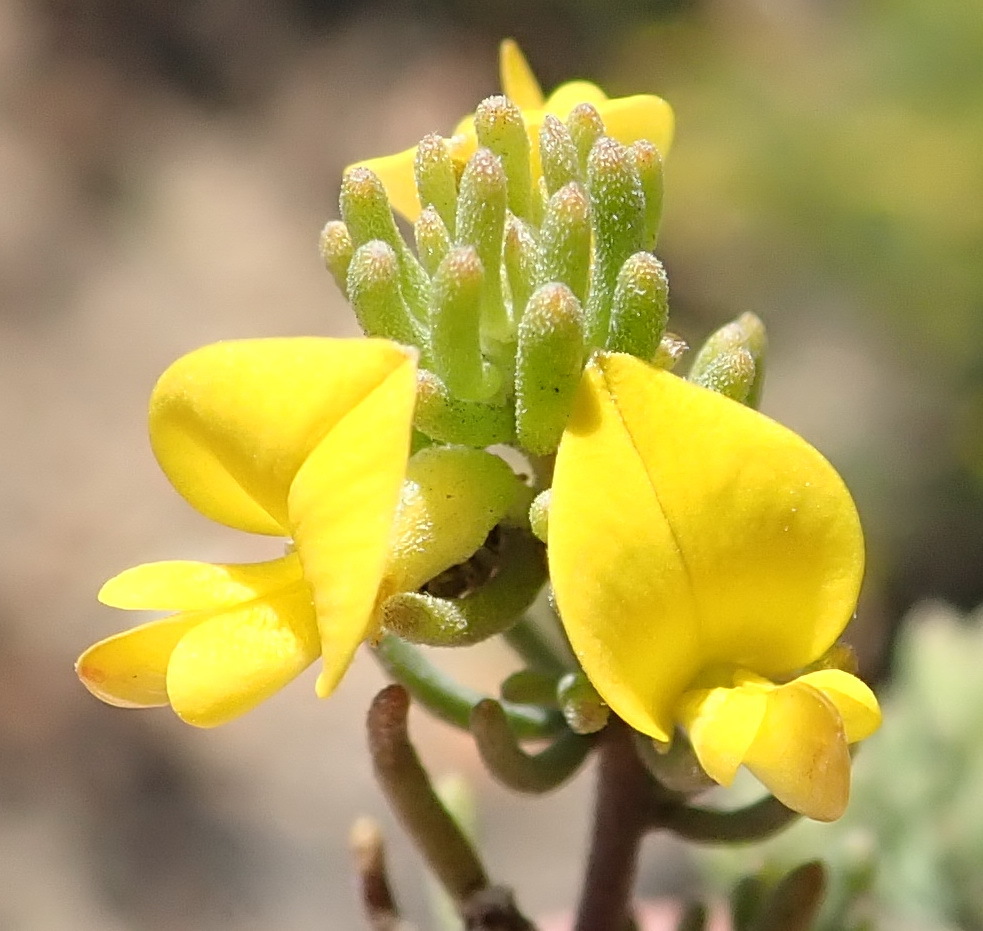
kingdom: Plantae
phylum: Tracheophyta
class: Magnoliopsida
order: Fabales
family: Fabaceae
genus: Aspalathus
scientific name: Aspalathus tuberculata
